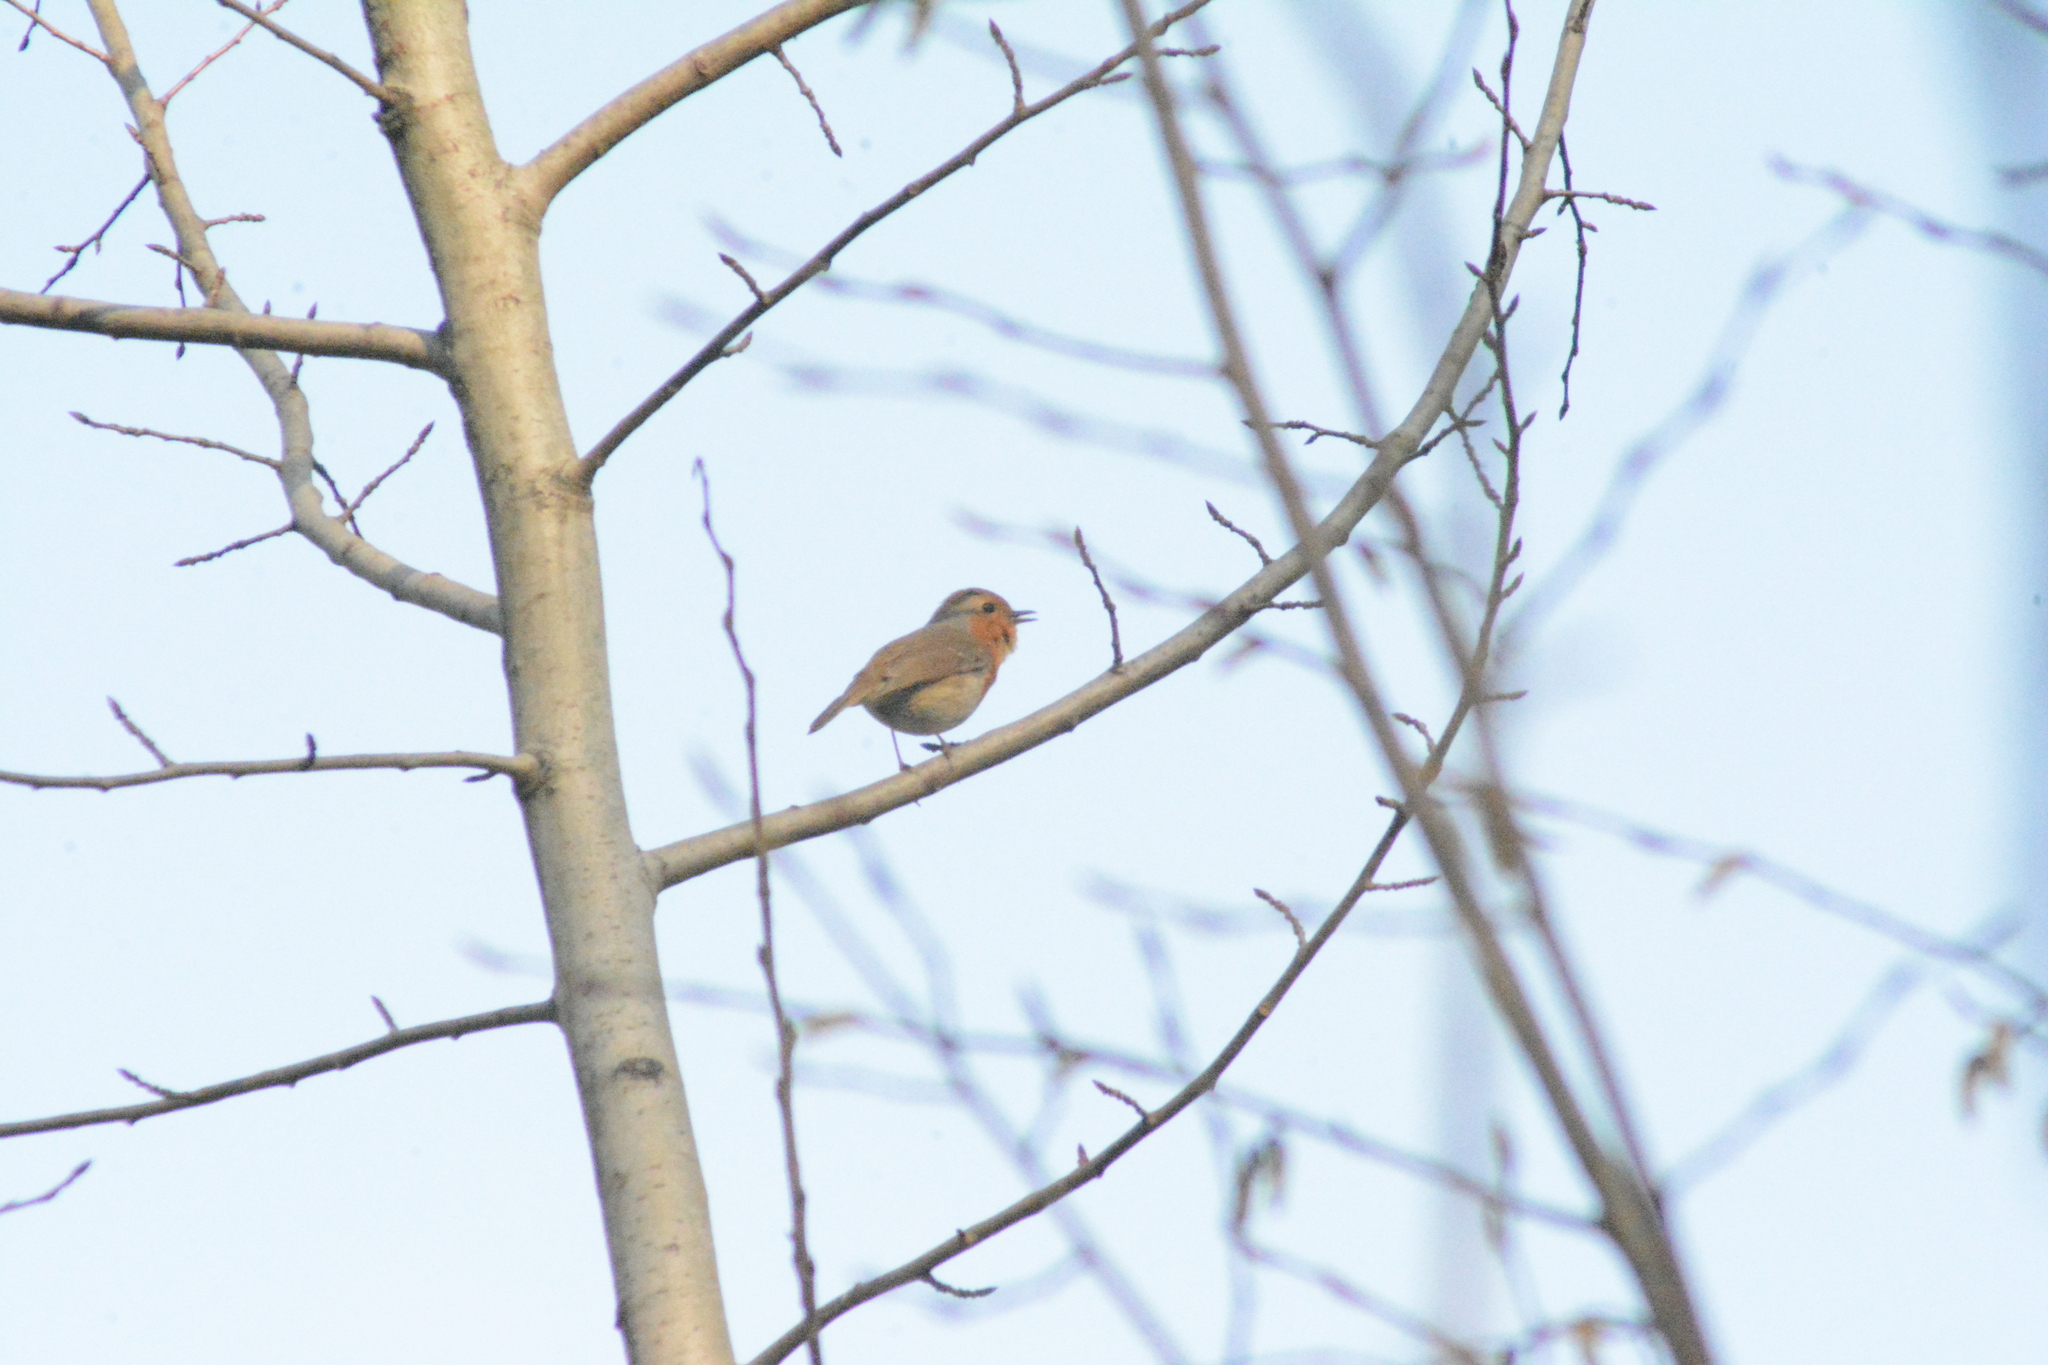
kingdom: Animalia
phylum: Chordata
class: Aves
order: Passeriformes
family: Muscicapidae
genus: Erithacus
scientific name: Erithacus rubecula
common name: European robin
